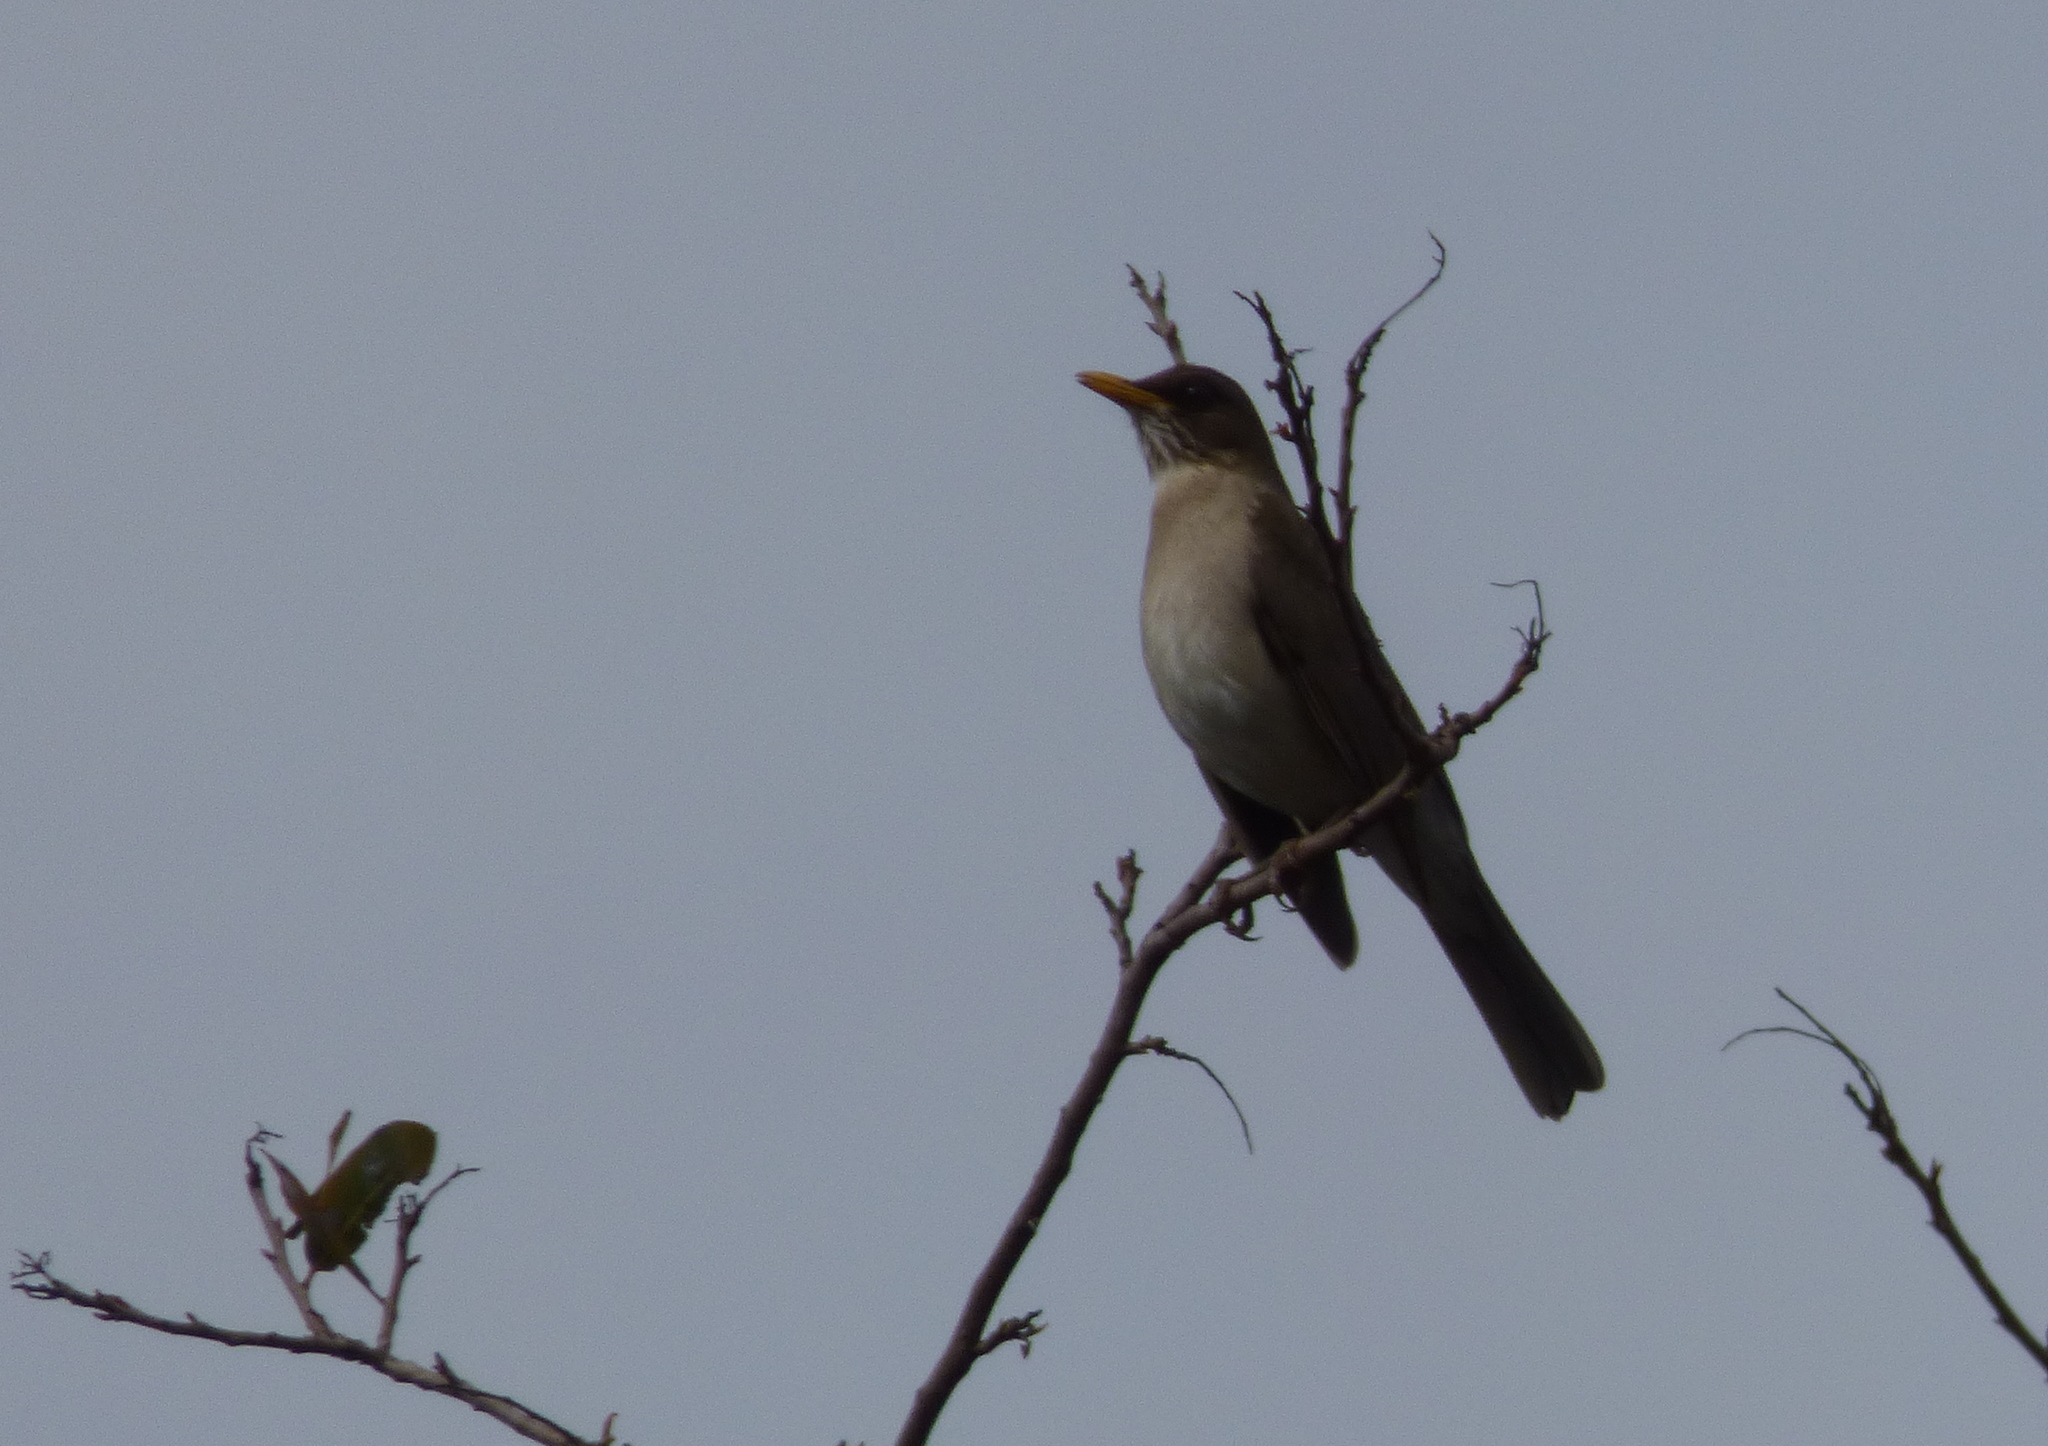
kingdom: Animalia
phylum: Chordata
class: Aves
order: Passeriformes
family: Turdidae
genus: Turdus
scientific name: Turdus amaurochalinus
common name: Creamy-bellied thrush
